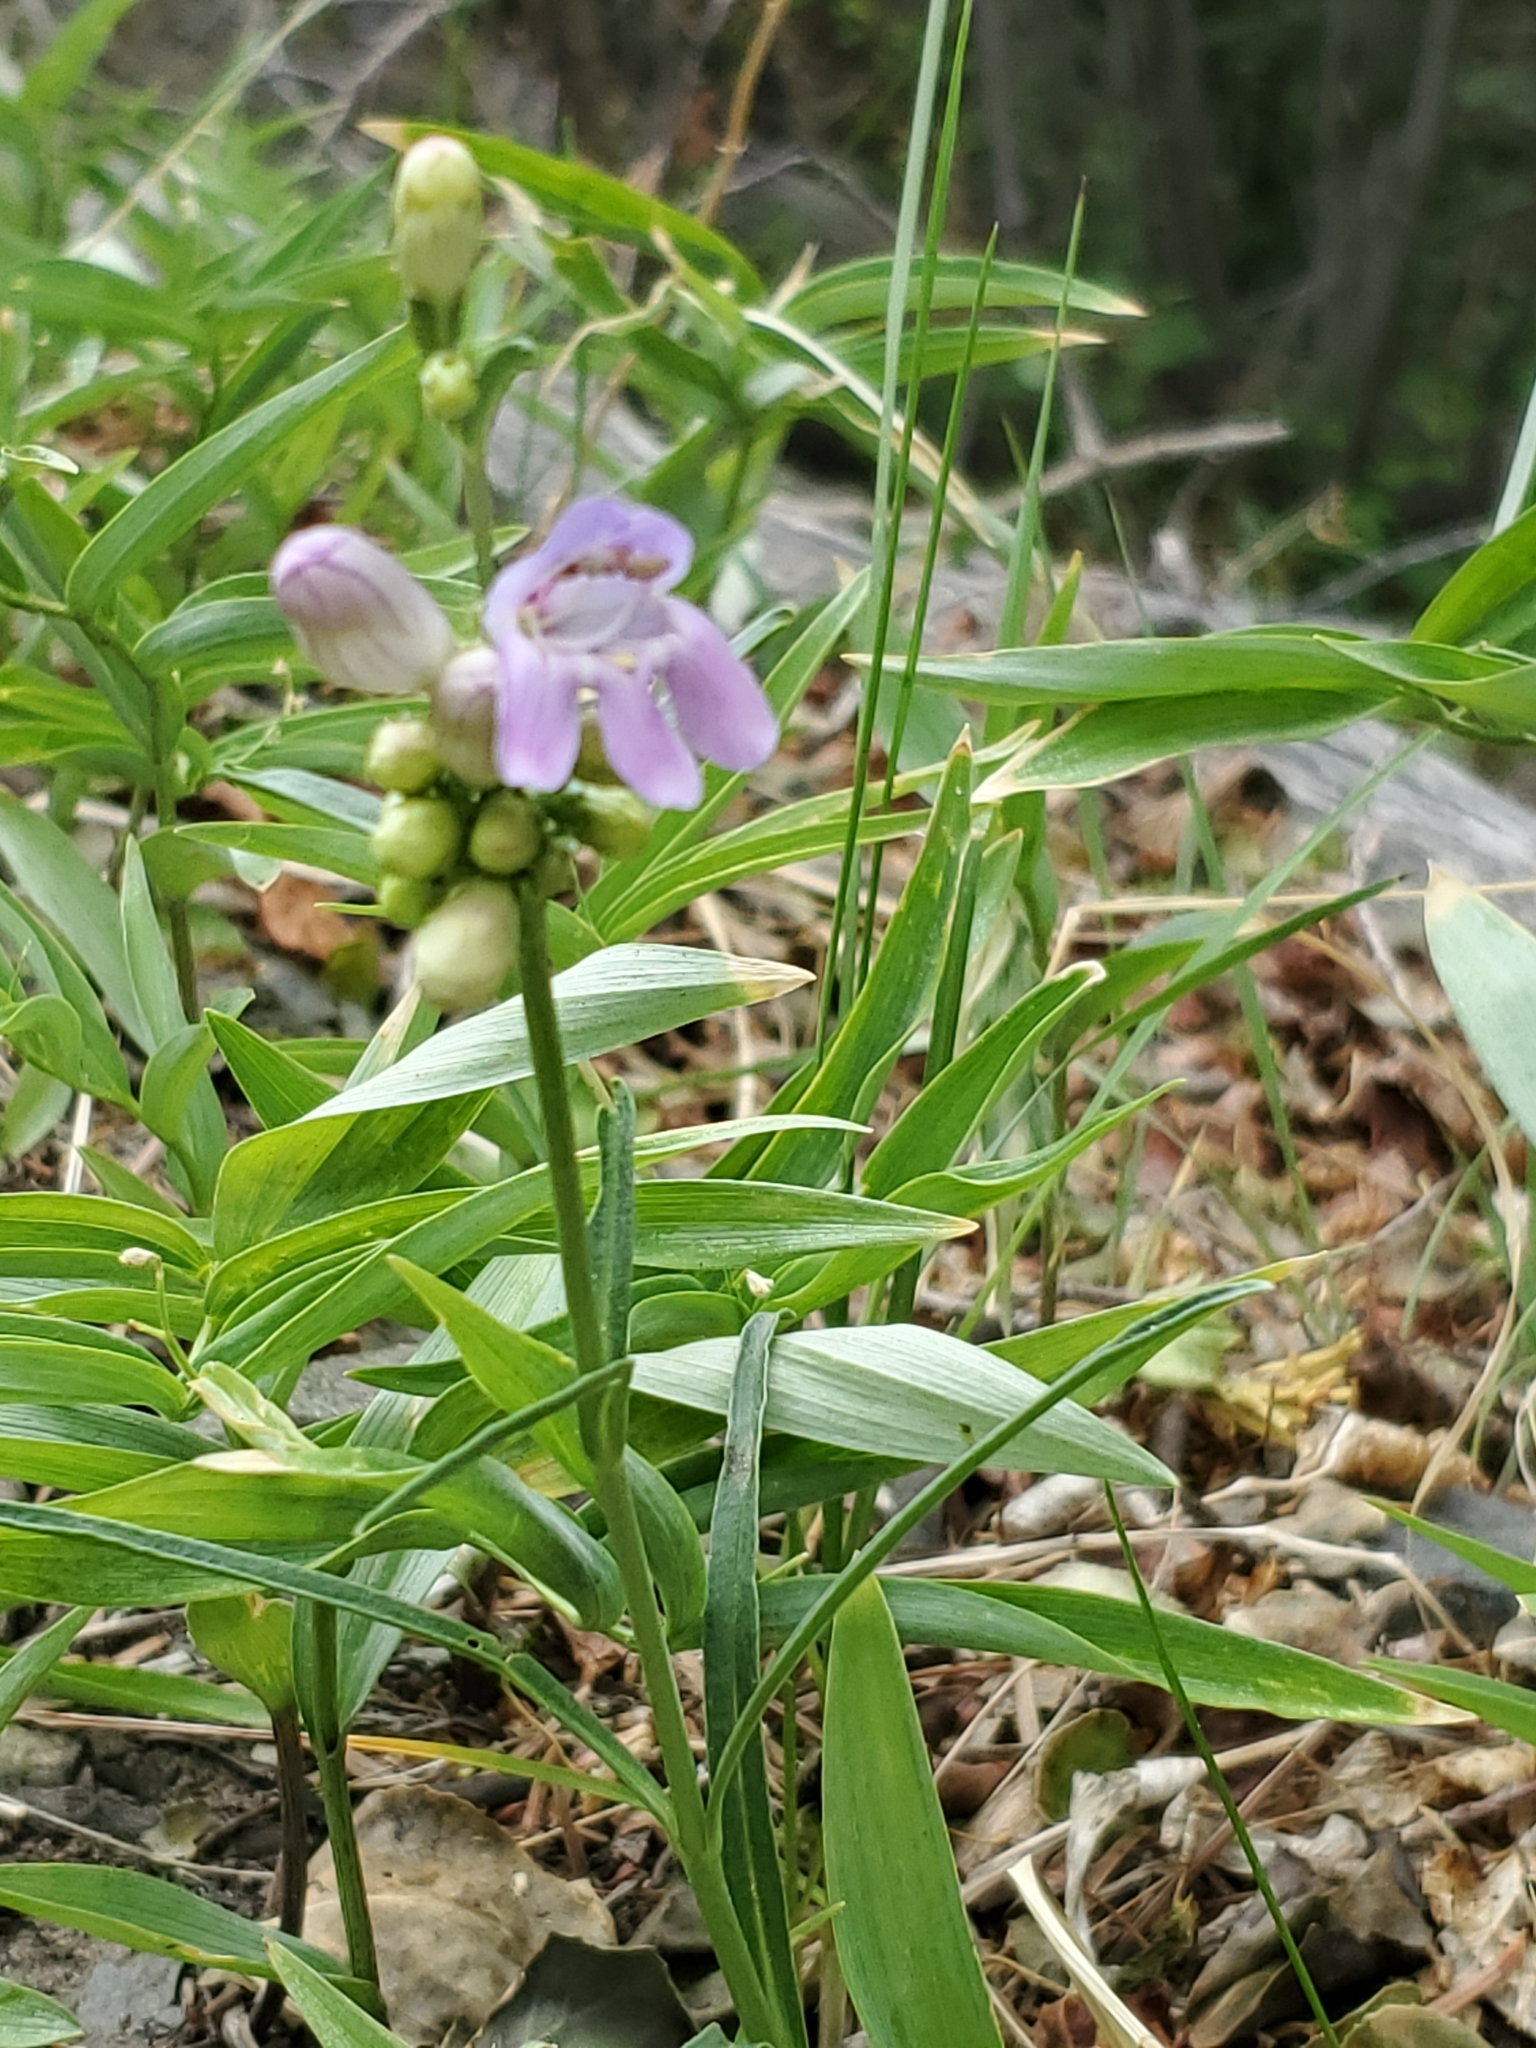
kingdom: Plantae
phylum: Tracheophyta
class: Magnoliopsida
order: Lamiales
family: Plantaginaceae
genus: Penstemon
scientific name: Penstemon virgatus
